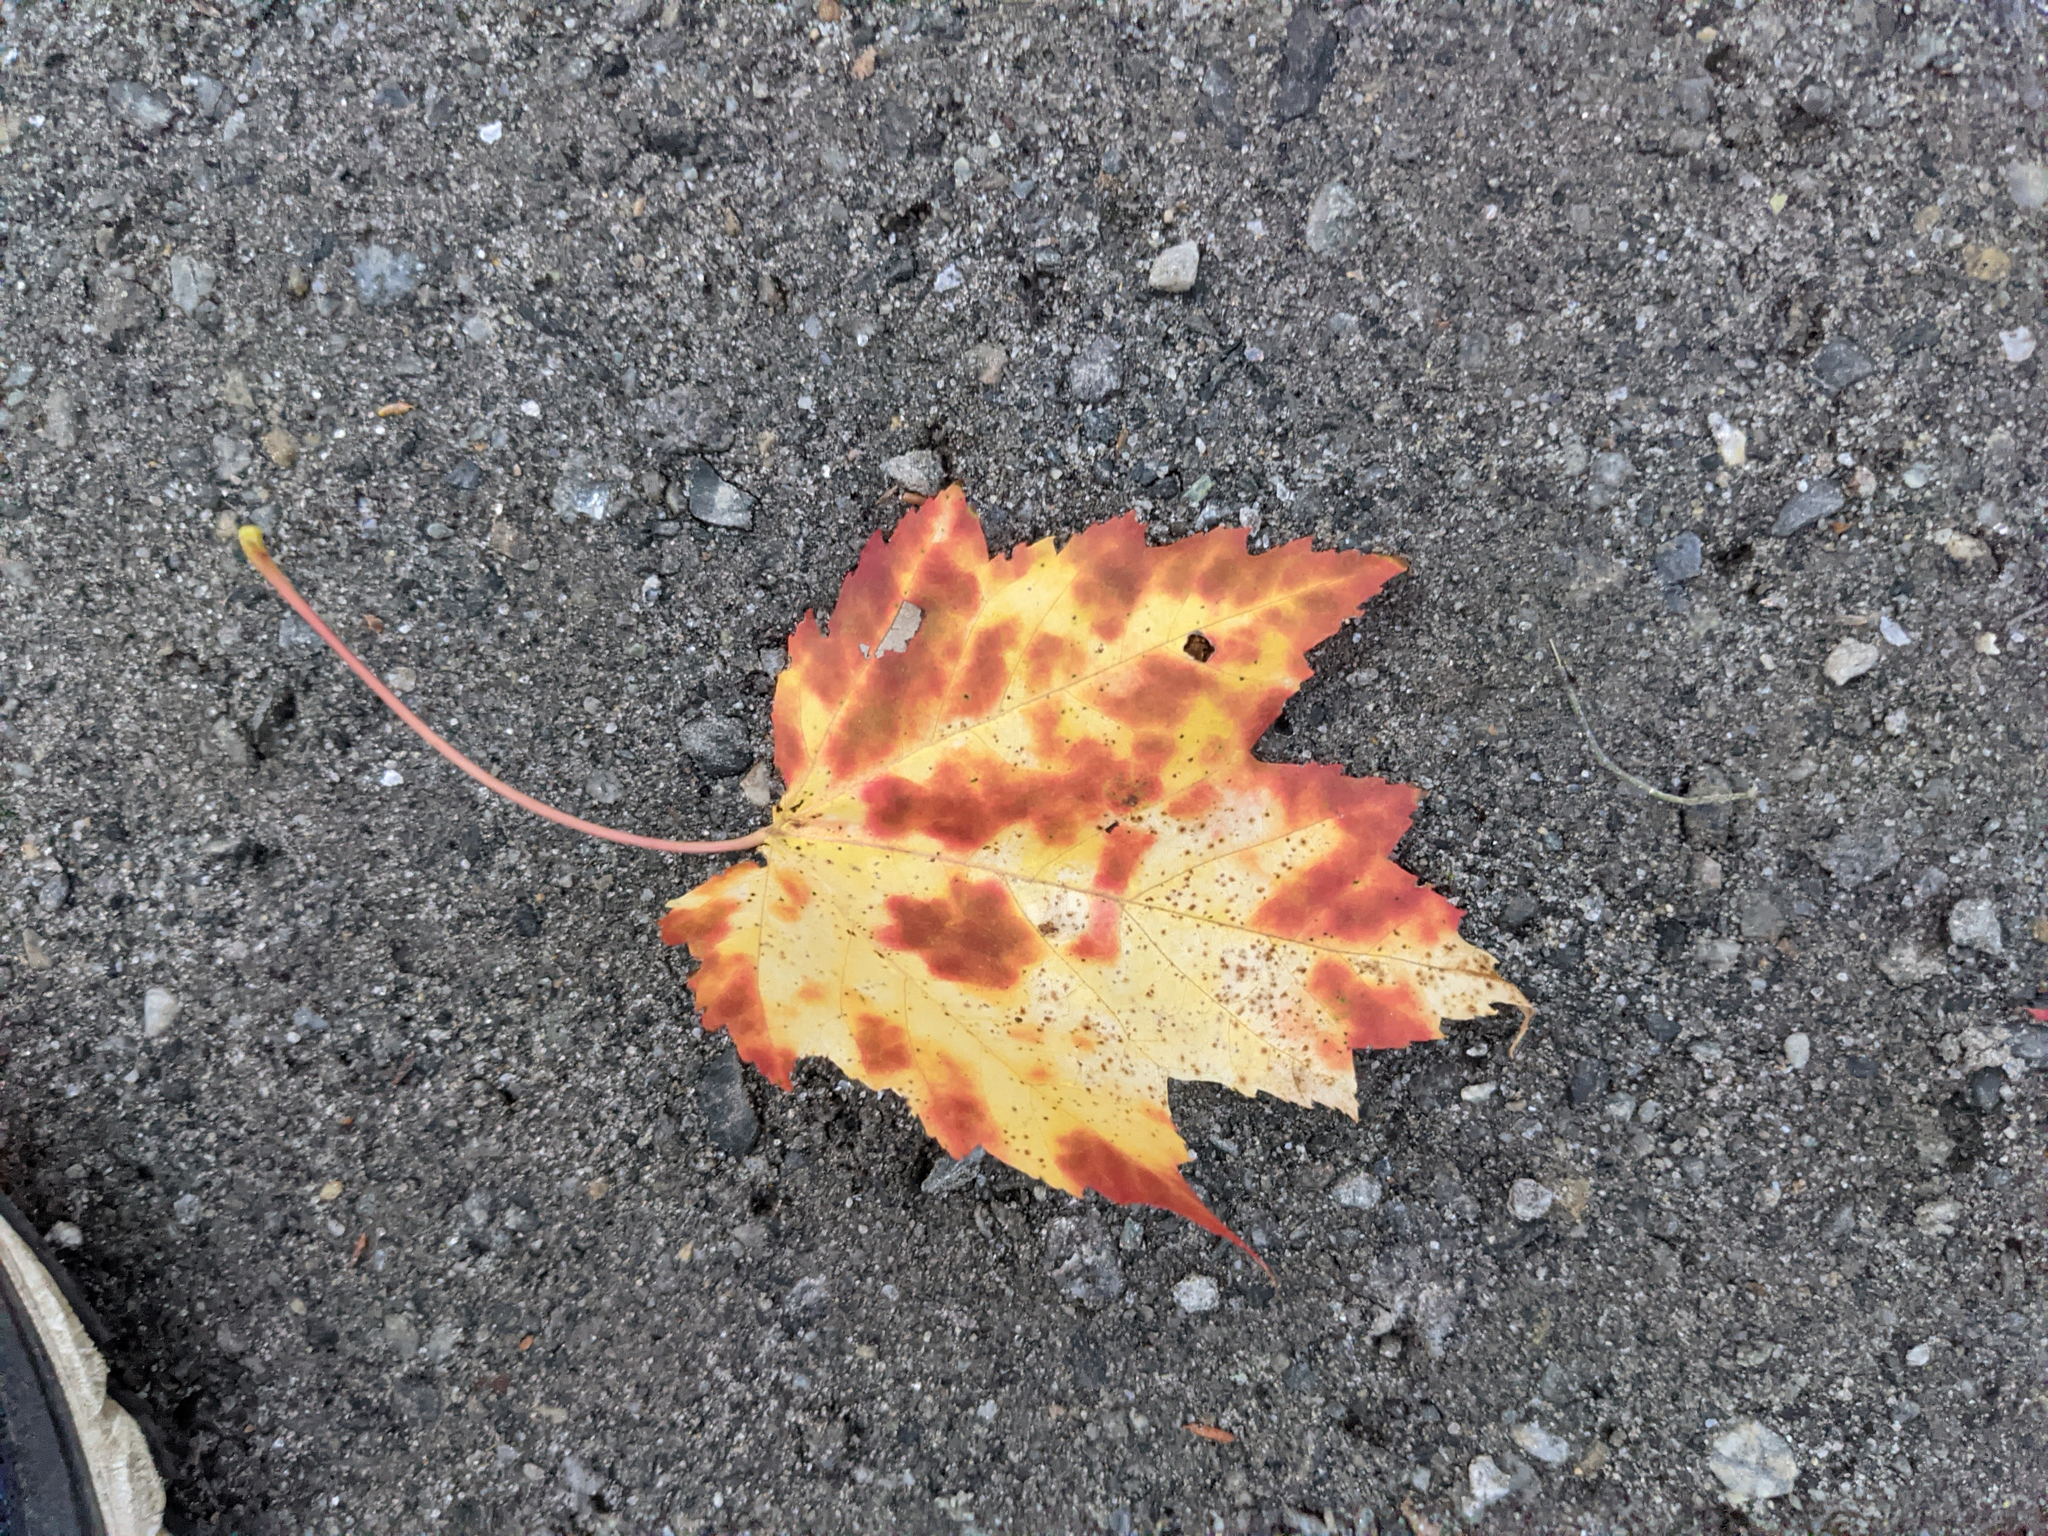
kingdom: Plantae
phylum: Tracheophyta
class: Magnoliopsida
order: Sapindales
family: Sapindaceae
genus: Acer
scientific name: Acer rubrum
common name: Red maple
